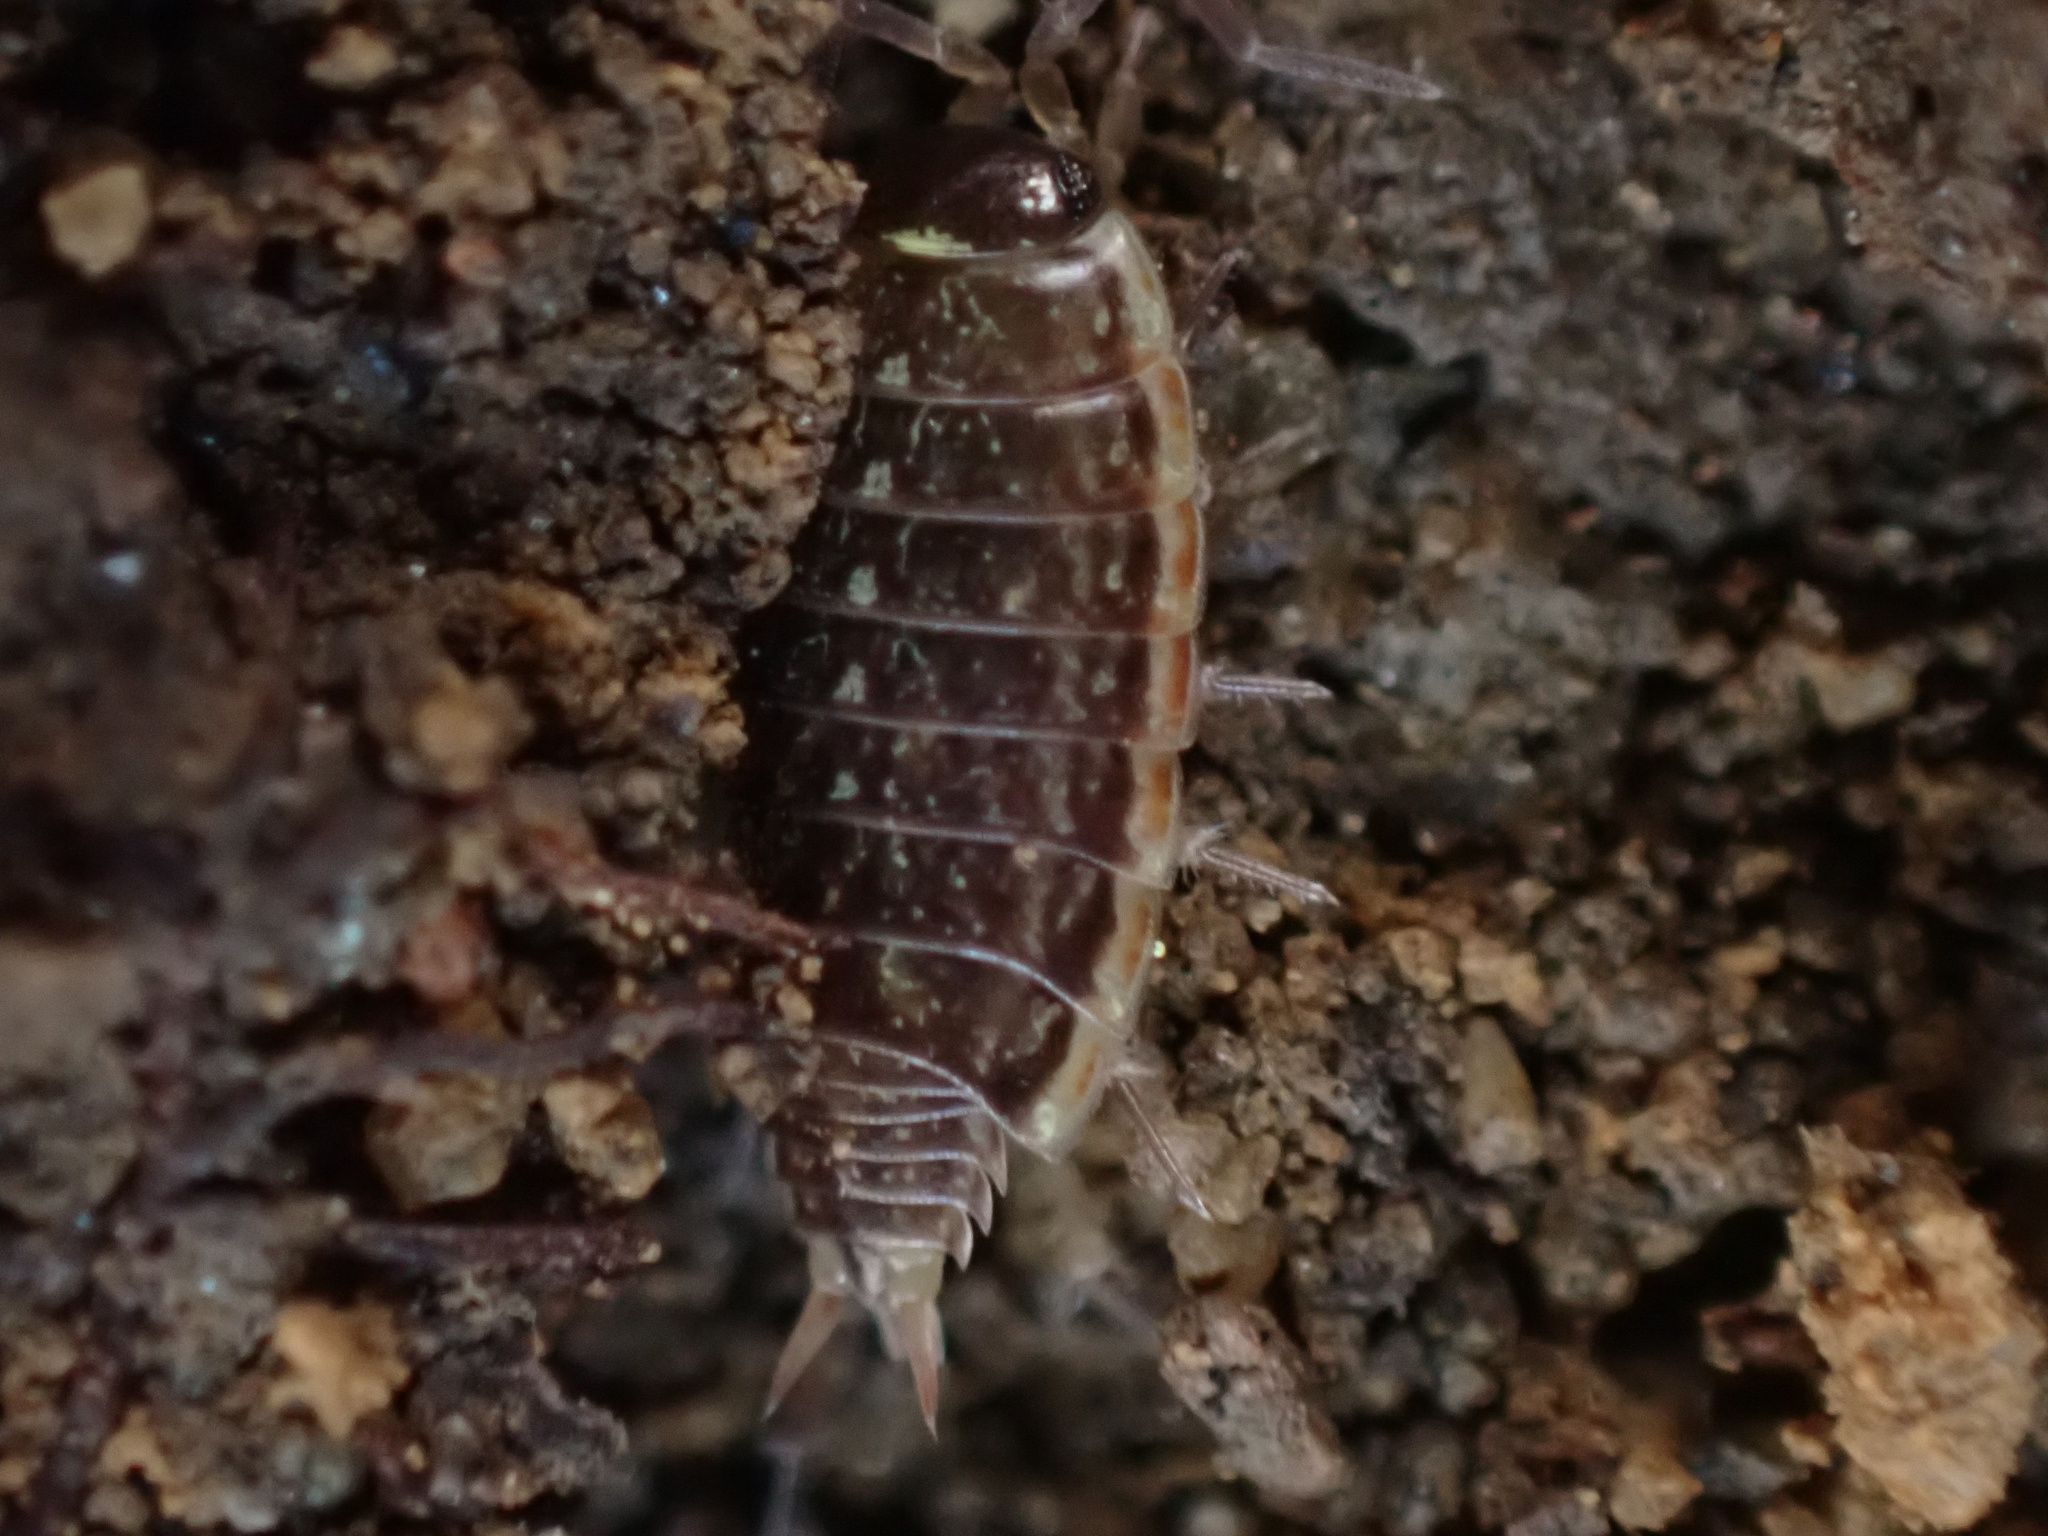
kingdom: Animalia
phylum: Arthropoda
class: Malacostraca
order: Isopoda
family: Philosciidae
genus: Philoscia
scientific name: Philoscia muscorum
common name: Common striped woodlouse
